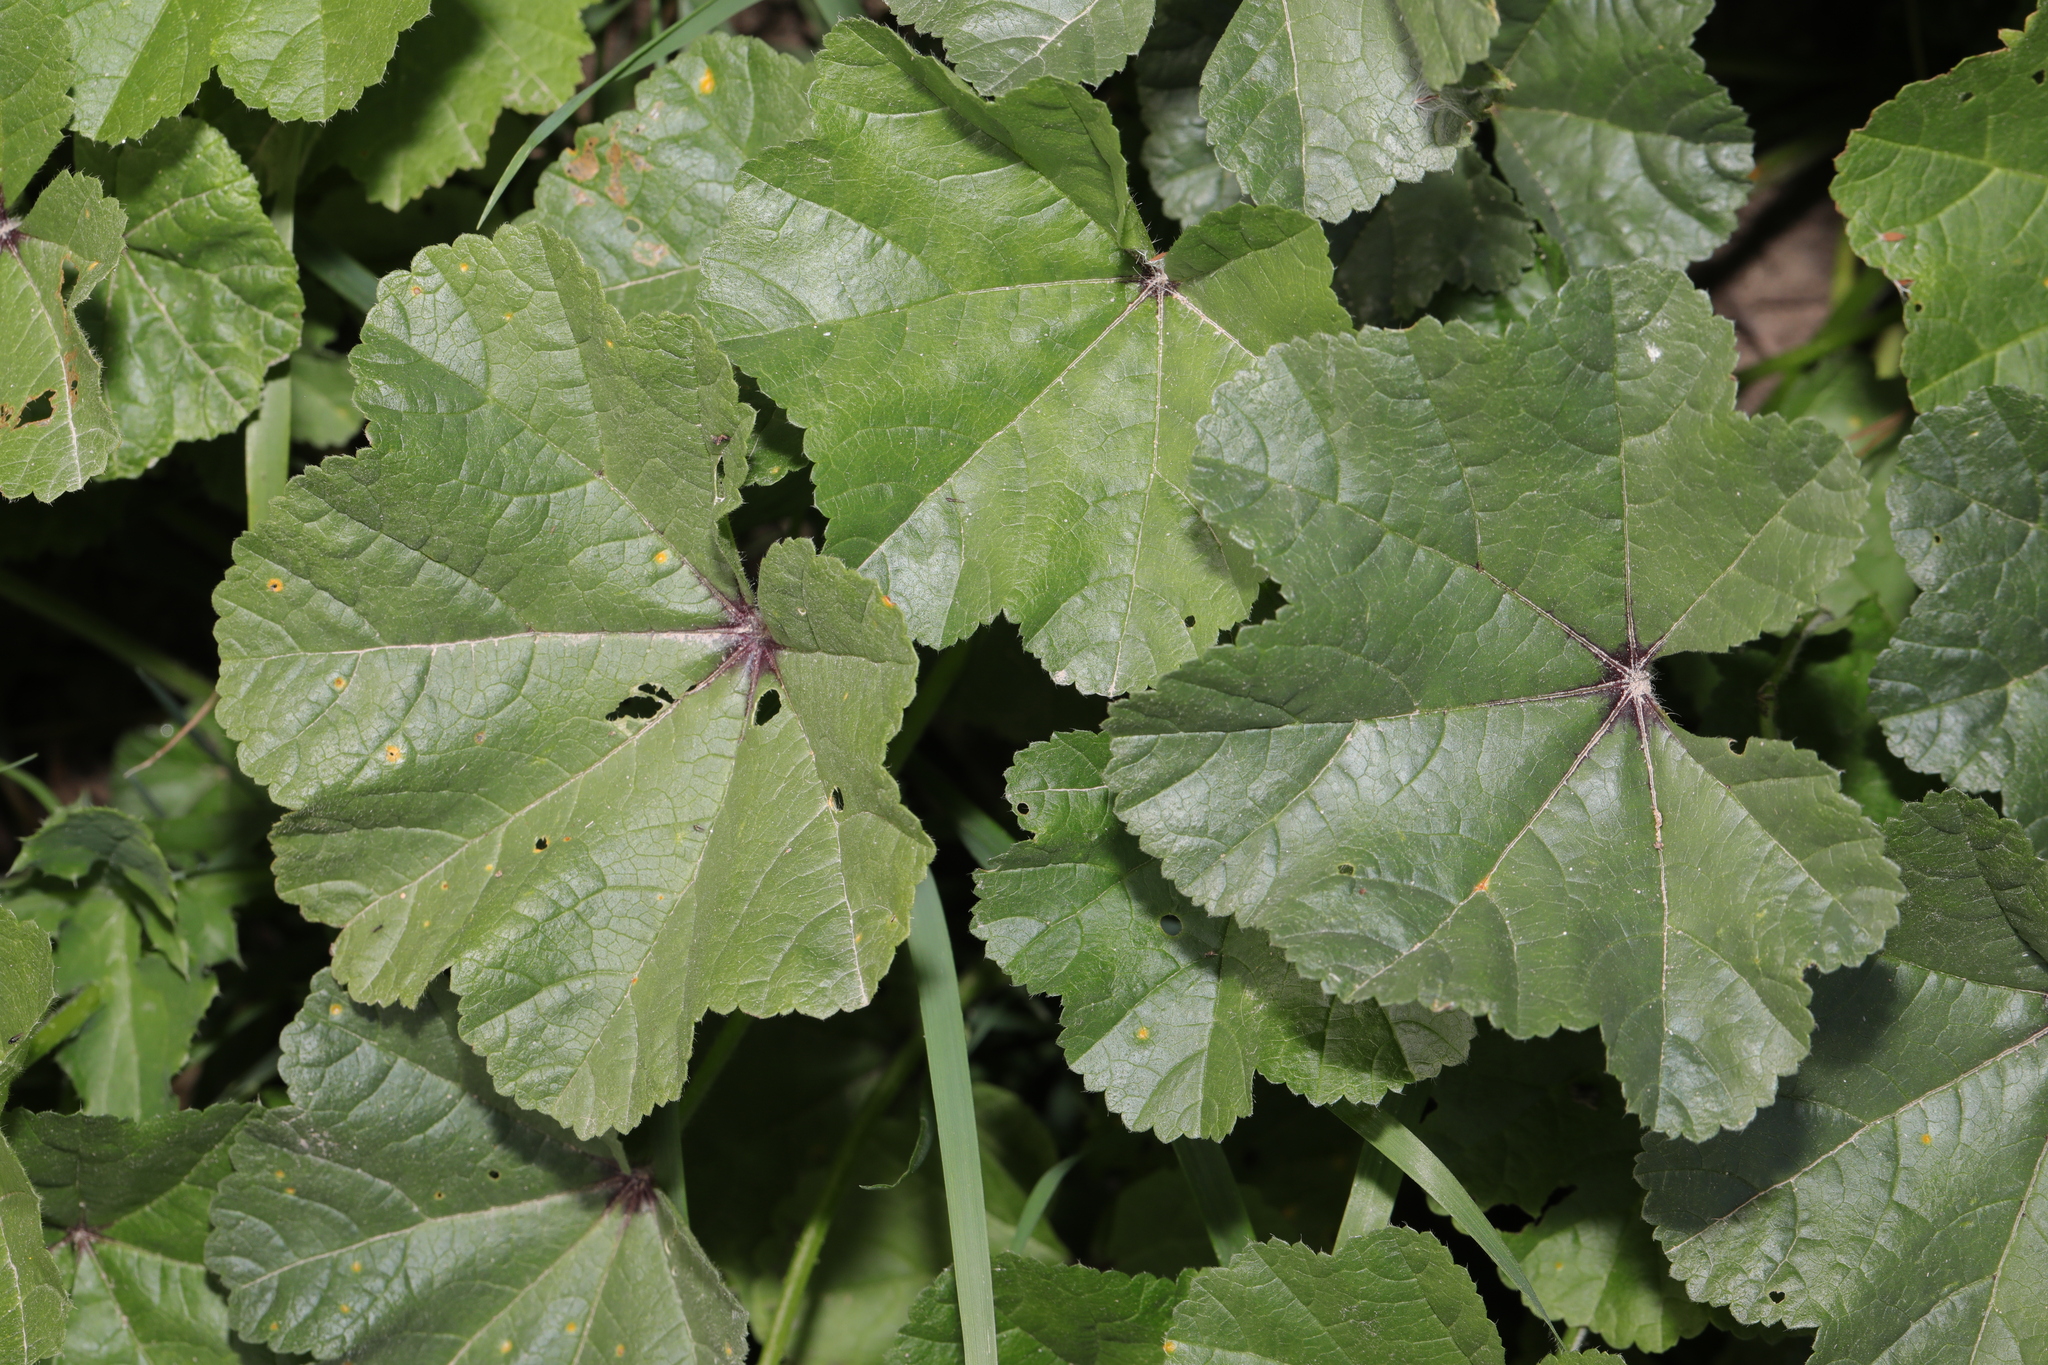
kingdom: Plantae
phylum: Tracheophyta
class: Magnoliopsida
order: Malvales
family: Malvaceae
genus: Malva
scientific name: Malva sylvestris
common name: Common mallow
